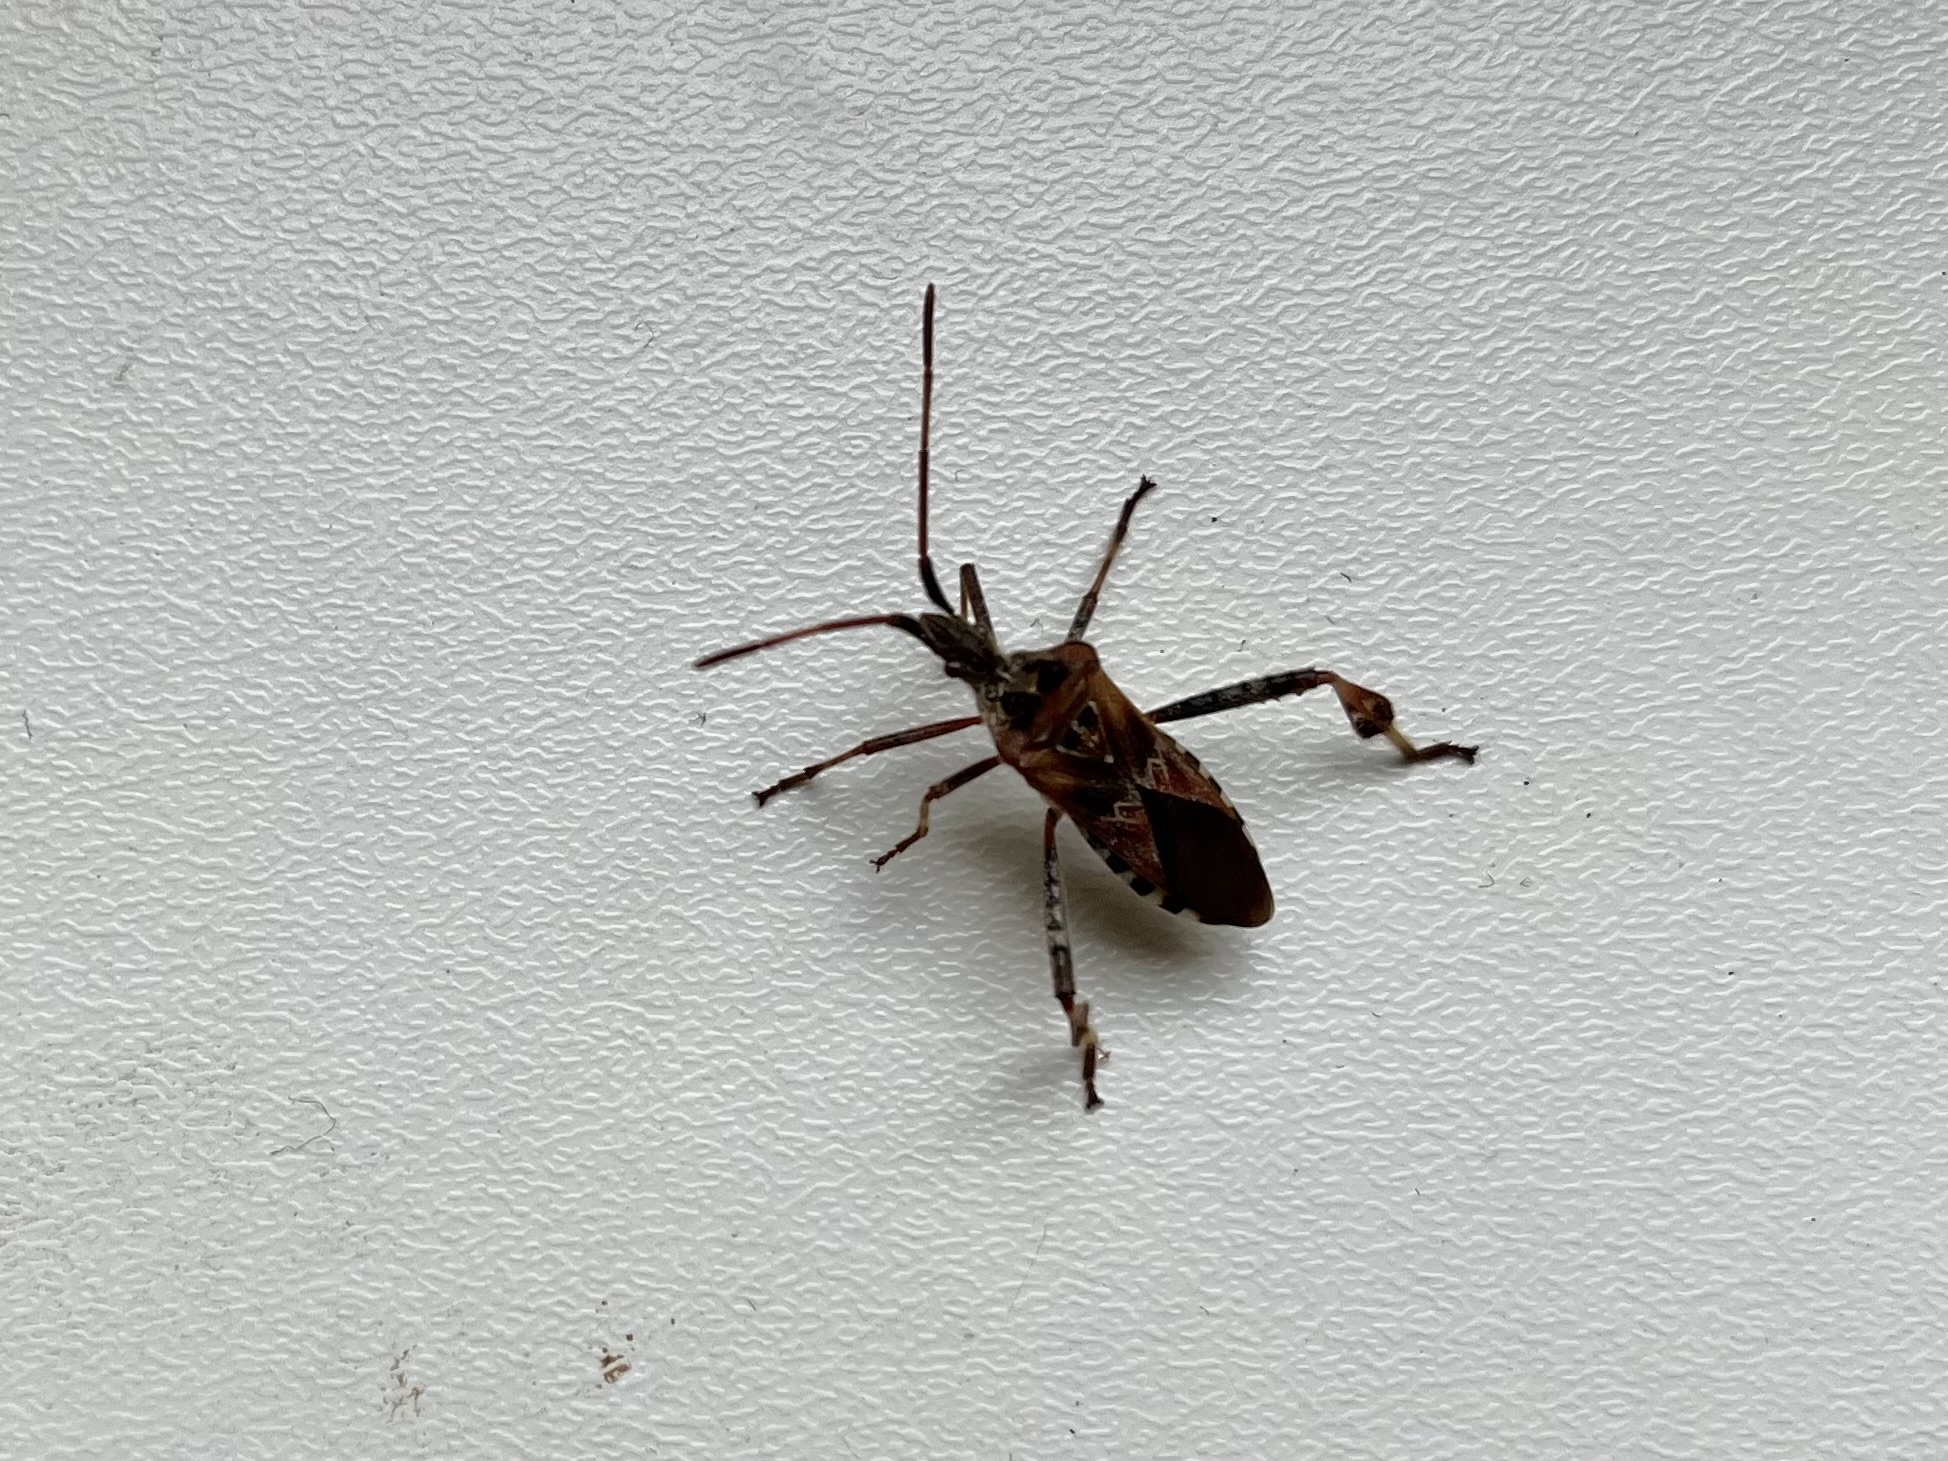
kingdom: Animalia
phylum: Arthropoda
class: Insecta
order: Hemiptera
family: Coreidae
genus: Leptoglossus
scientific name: Leptoglossus occidentalis
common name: Western conifer-seed bug
